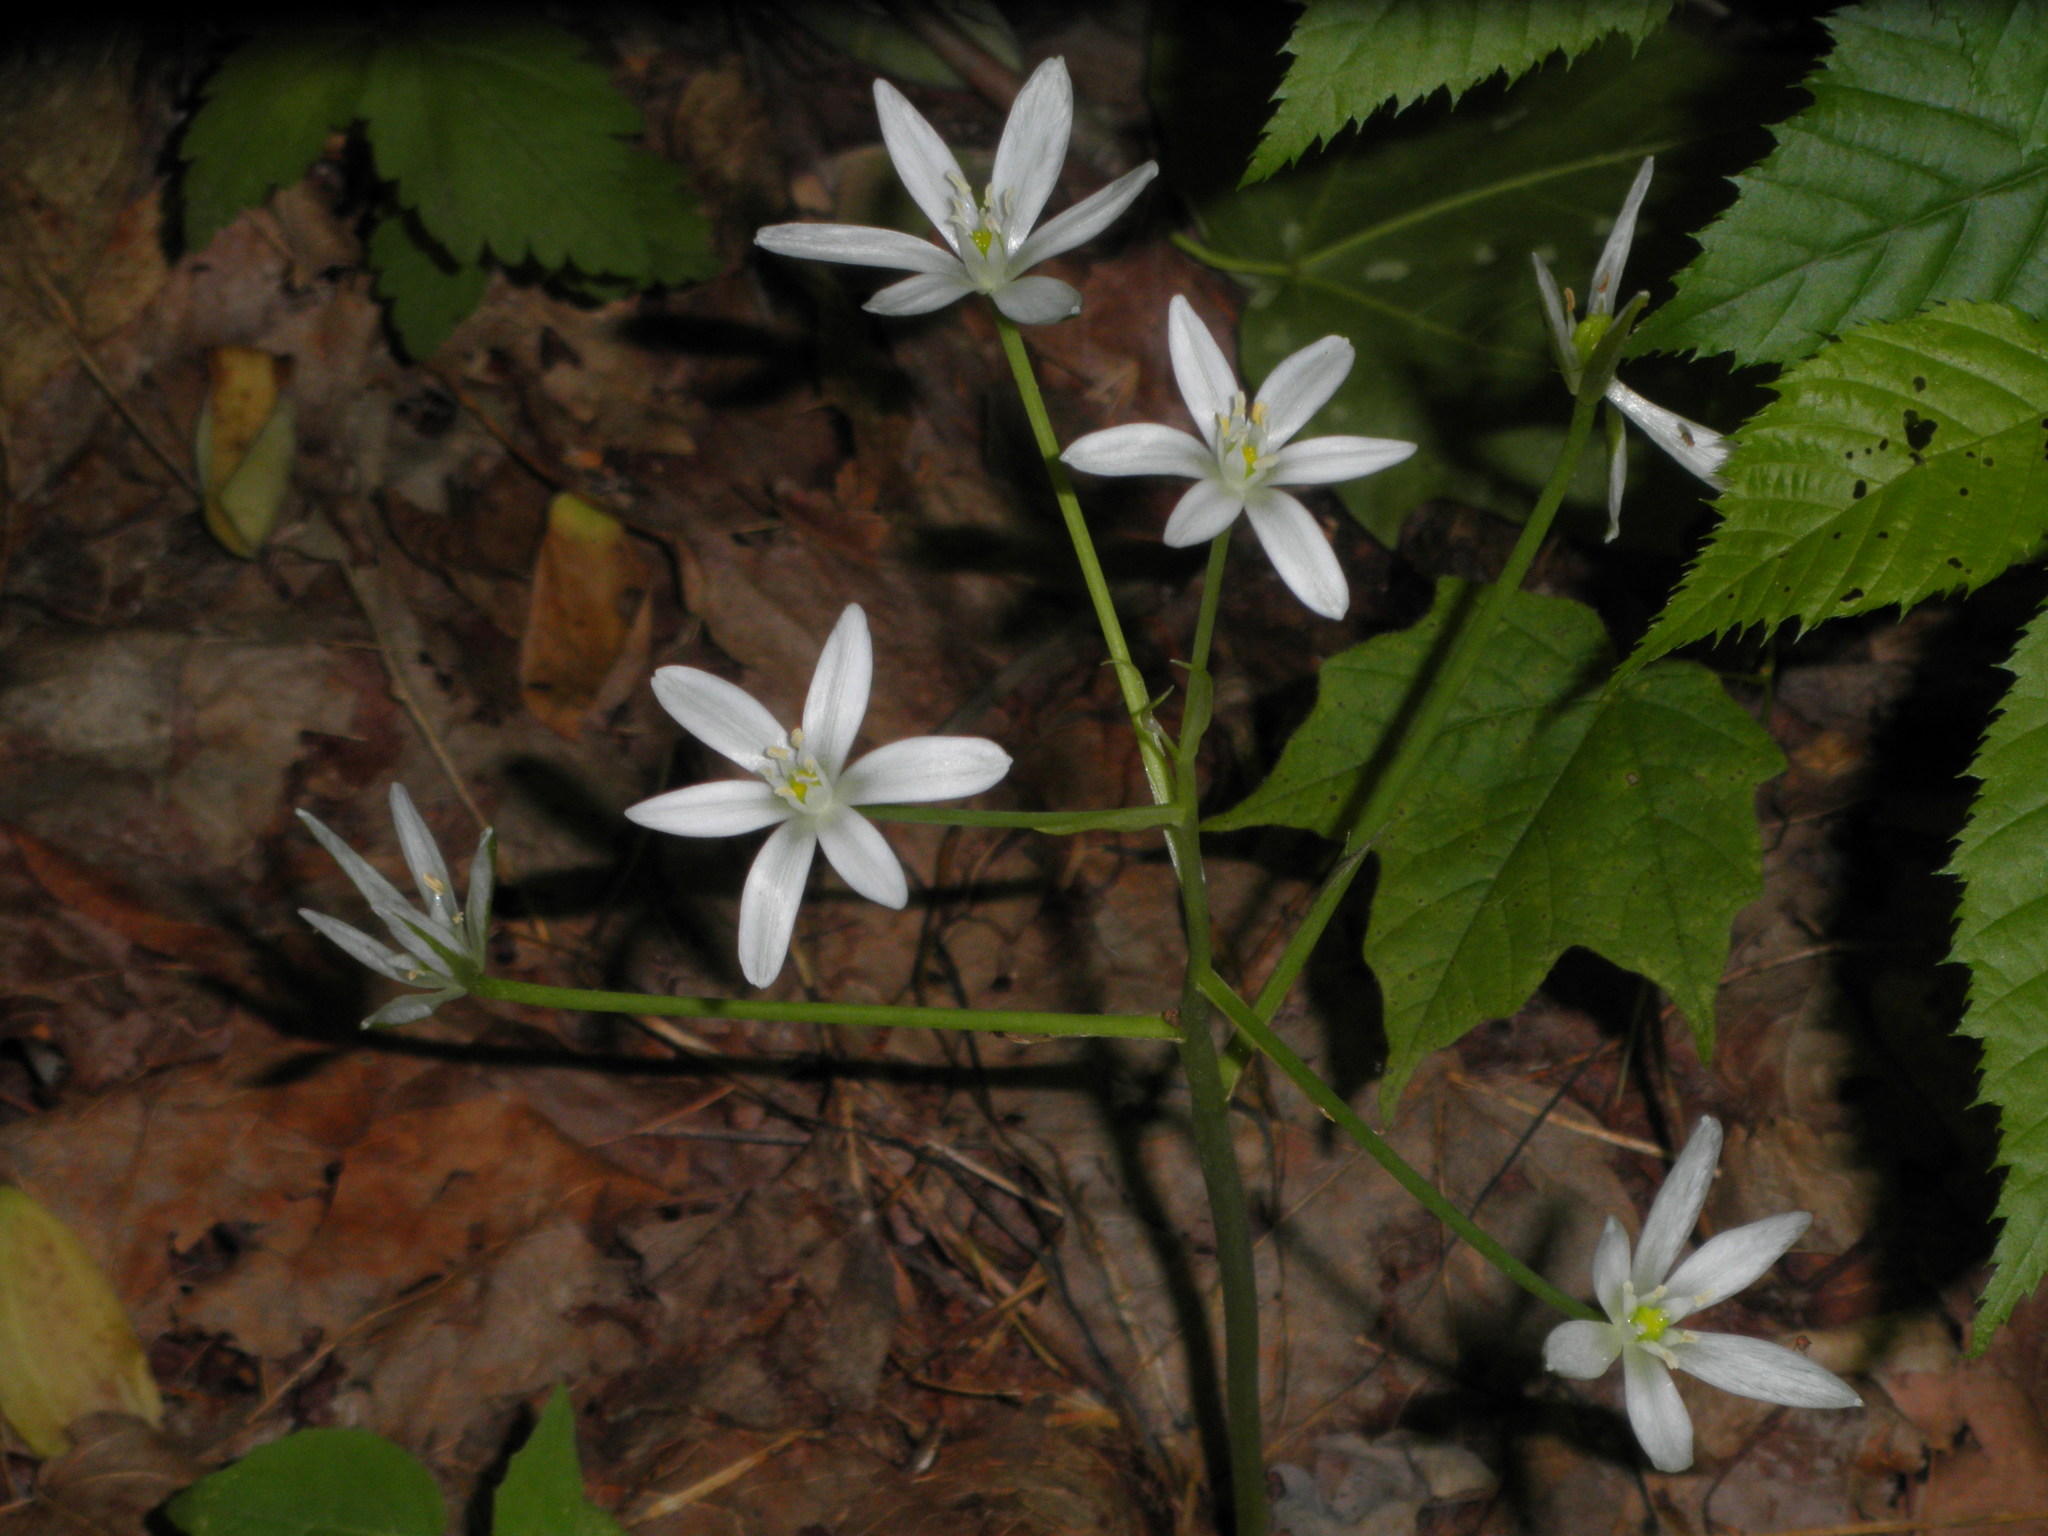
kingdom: Plantae
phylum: Tracheophyta
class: Liliopsida
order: Asparagales
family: Asparagaceae
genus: Ornithogalum
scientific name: Ornithogalum umbellatum
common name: Garden star-of-bethlehem
